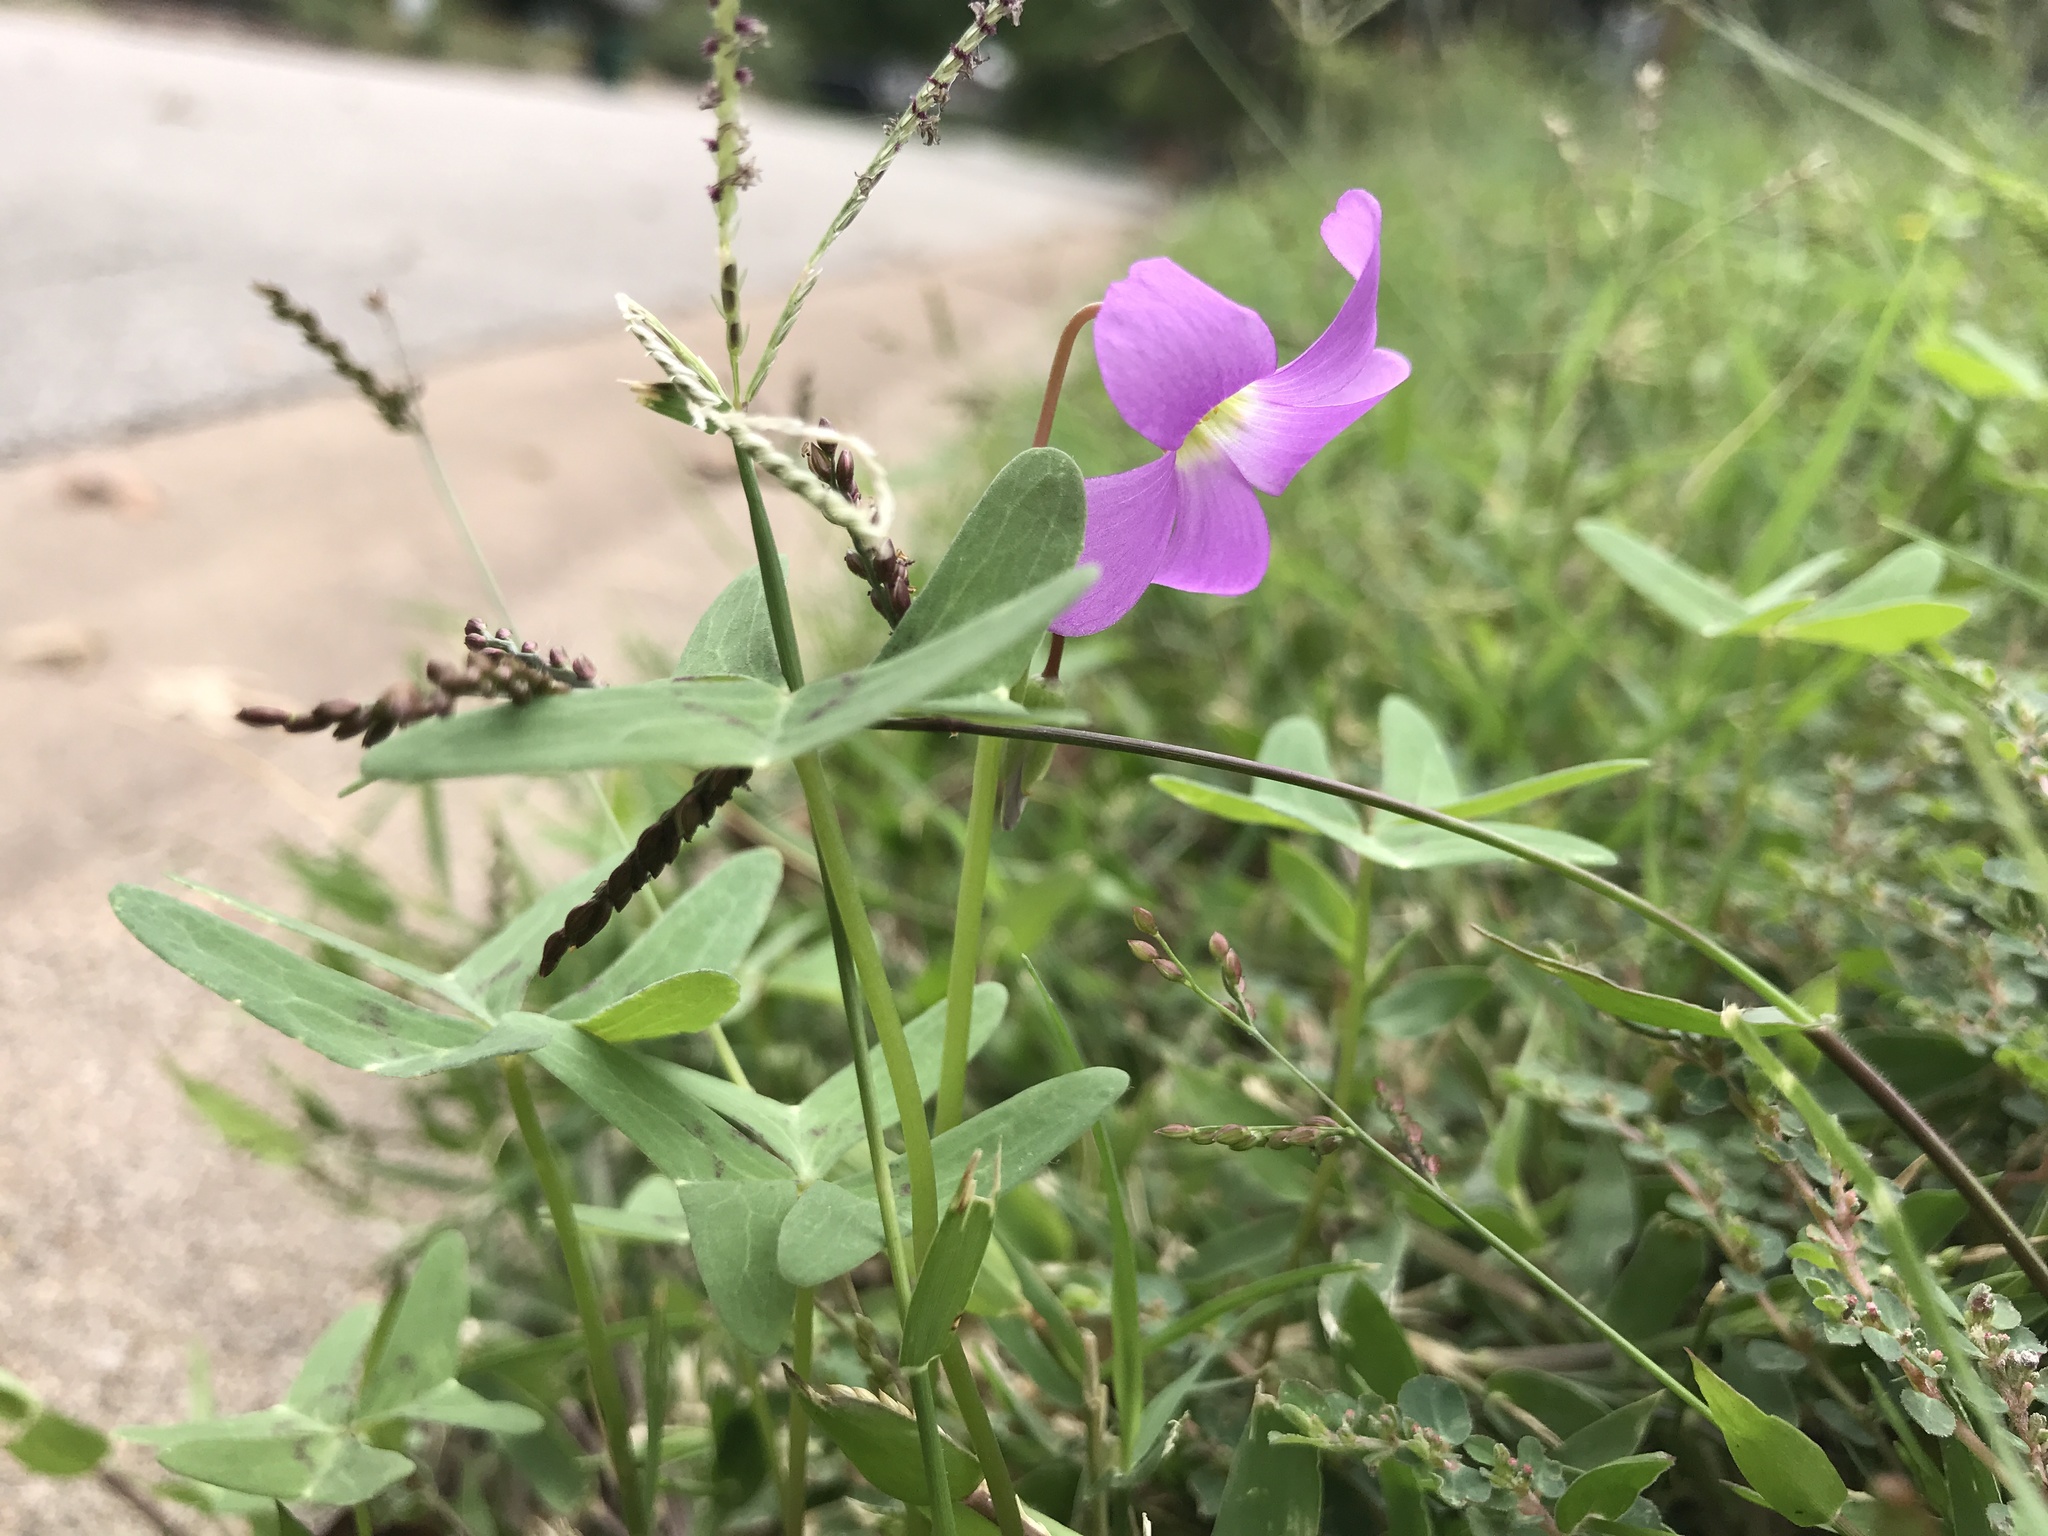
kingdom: Plantae
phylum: Tracheophyta
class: Magnoliopsida
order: Oxalidales
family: Oxalidaceae
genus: Oxalis
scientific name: Oxalis drummondii
